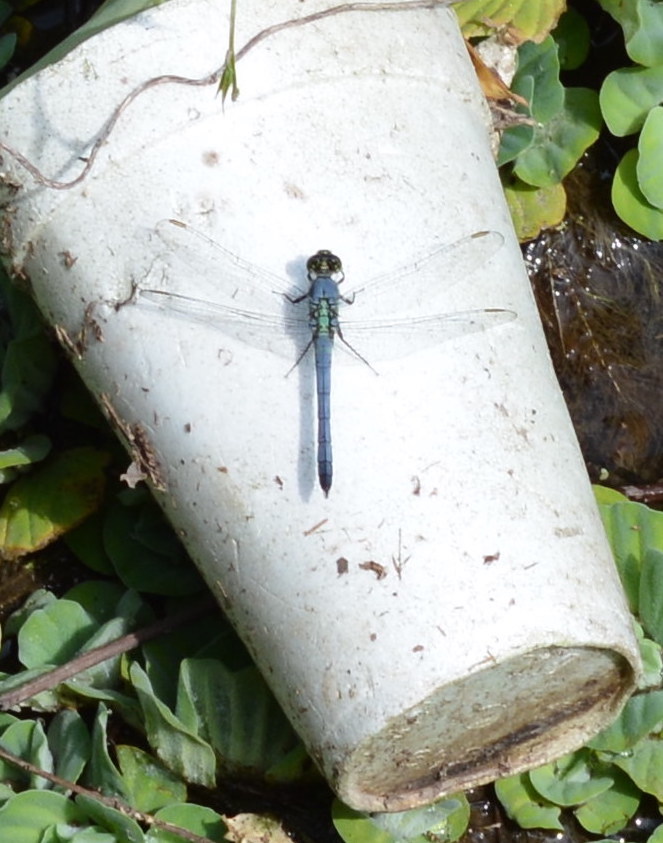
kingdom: Animalia
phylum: Arthropoda
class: Insecta
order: Odonata
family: Libellulidae
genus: Erythemis
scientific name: Erythemis simplicicollis
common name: Eastern pondhawk
